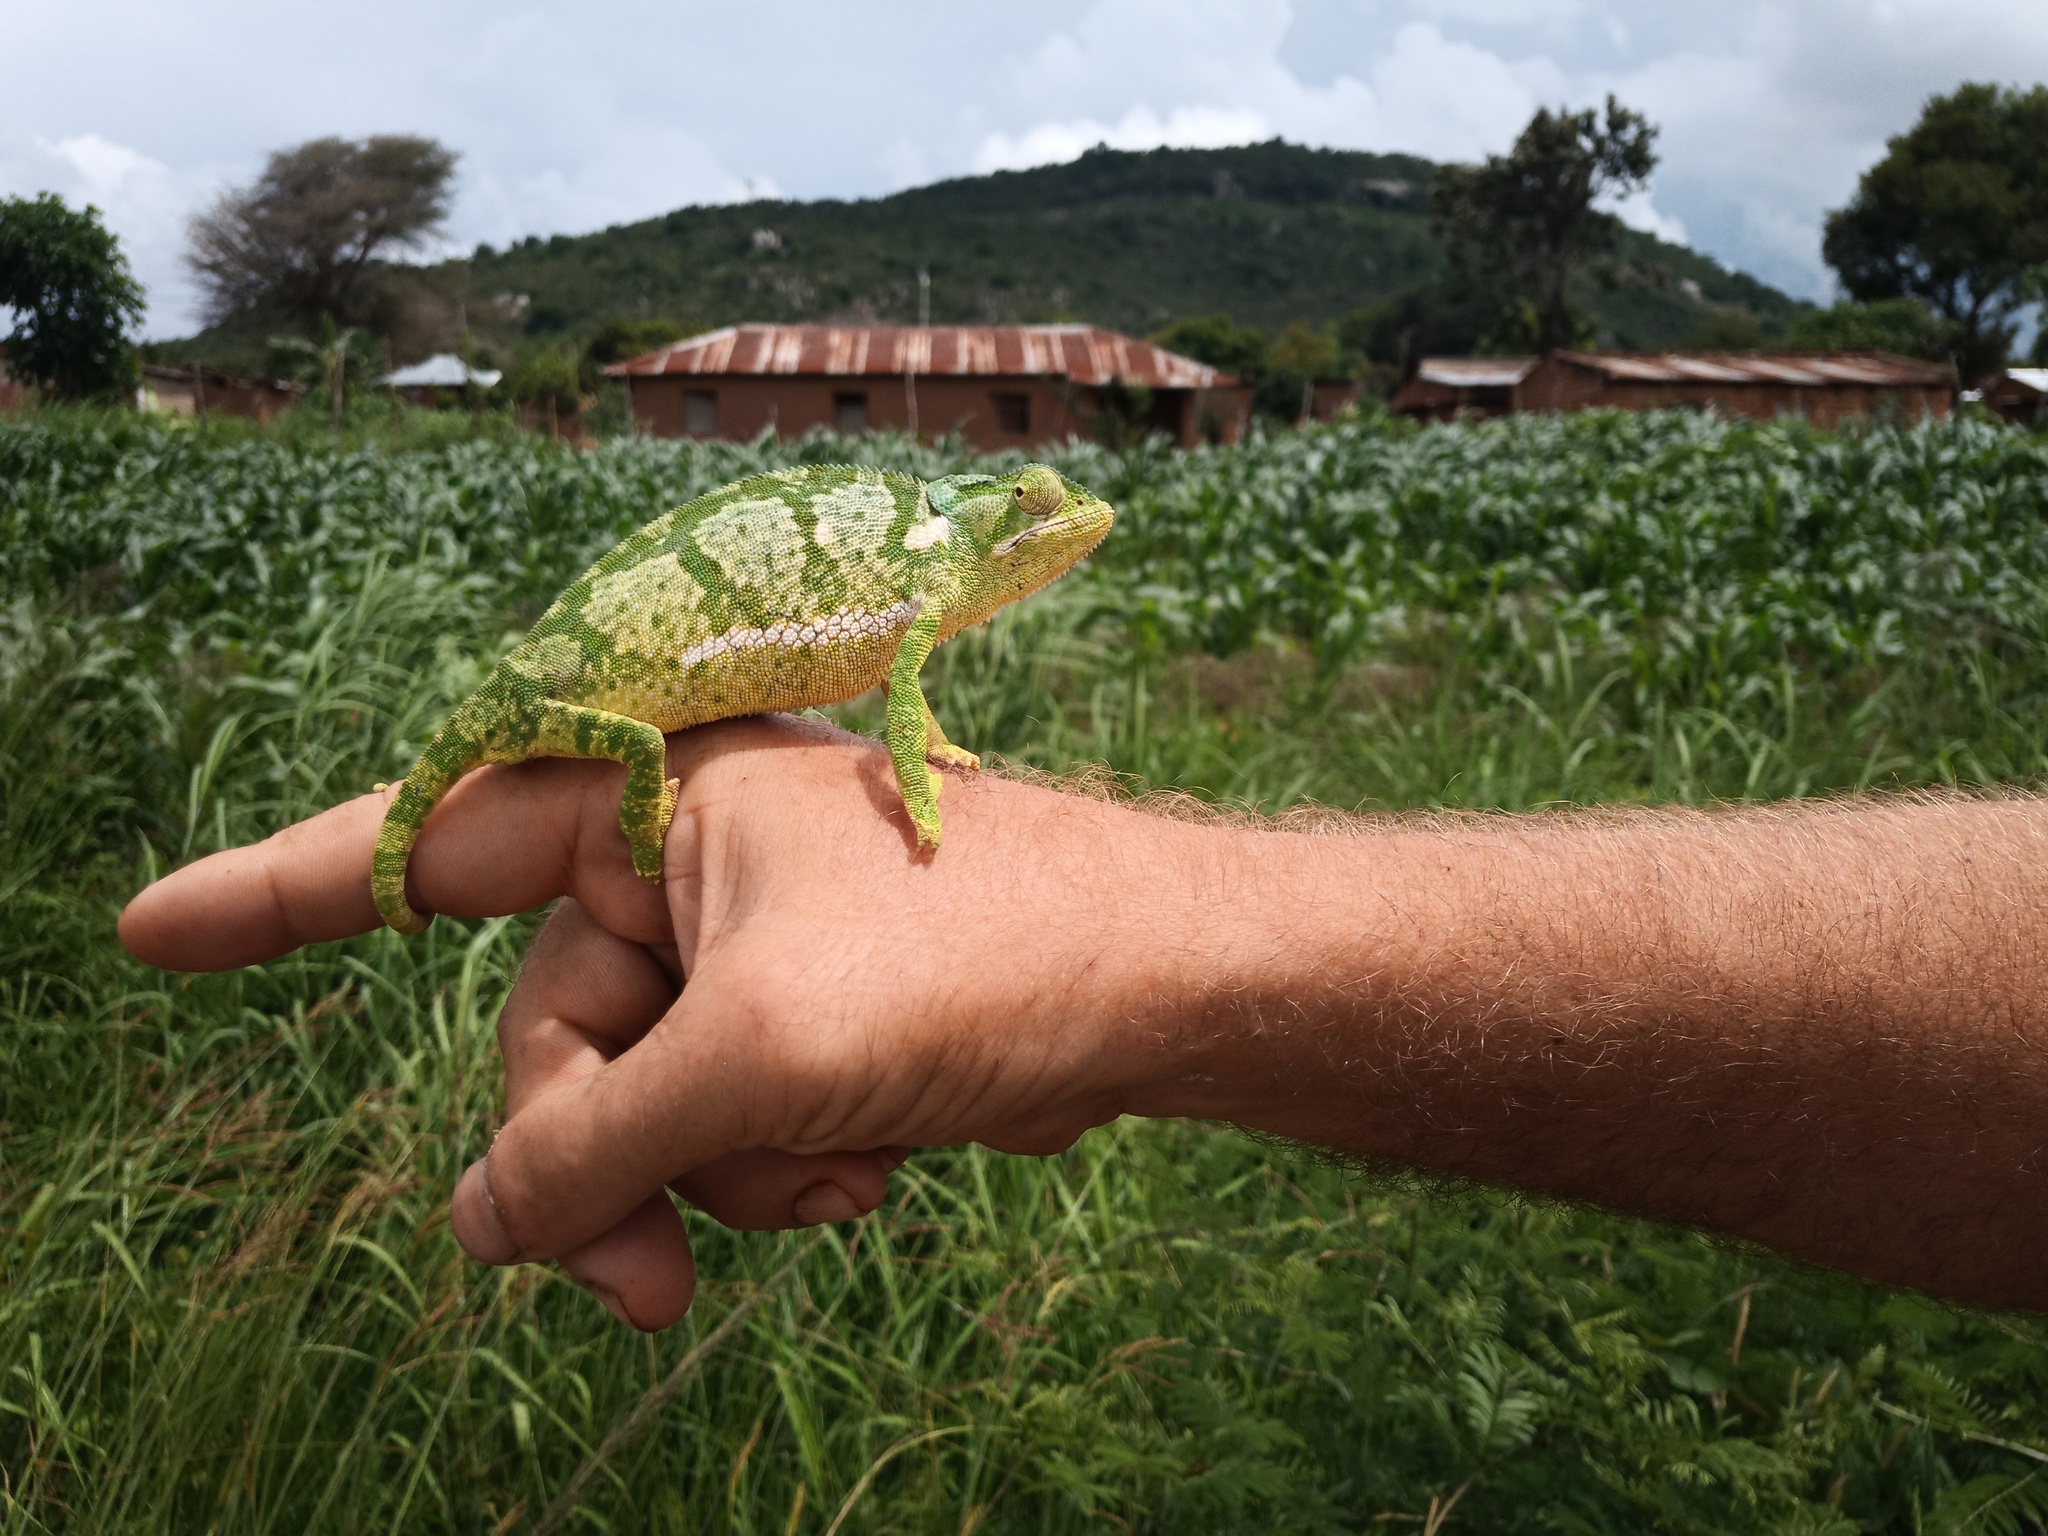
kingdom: Animalia
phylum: Chordata
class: Squamata
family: Chamaeleonidae
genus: Chamaeleo
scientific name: Chamaeleo dilepis
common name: Flapneck chameleon
